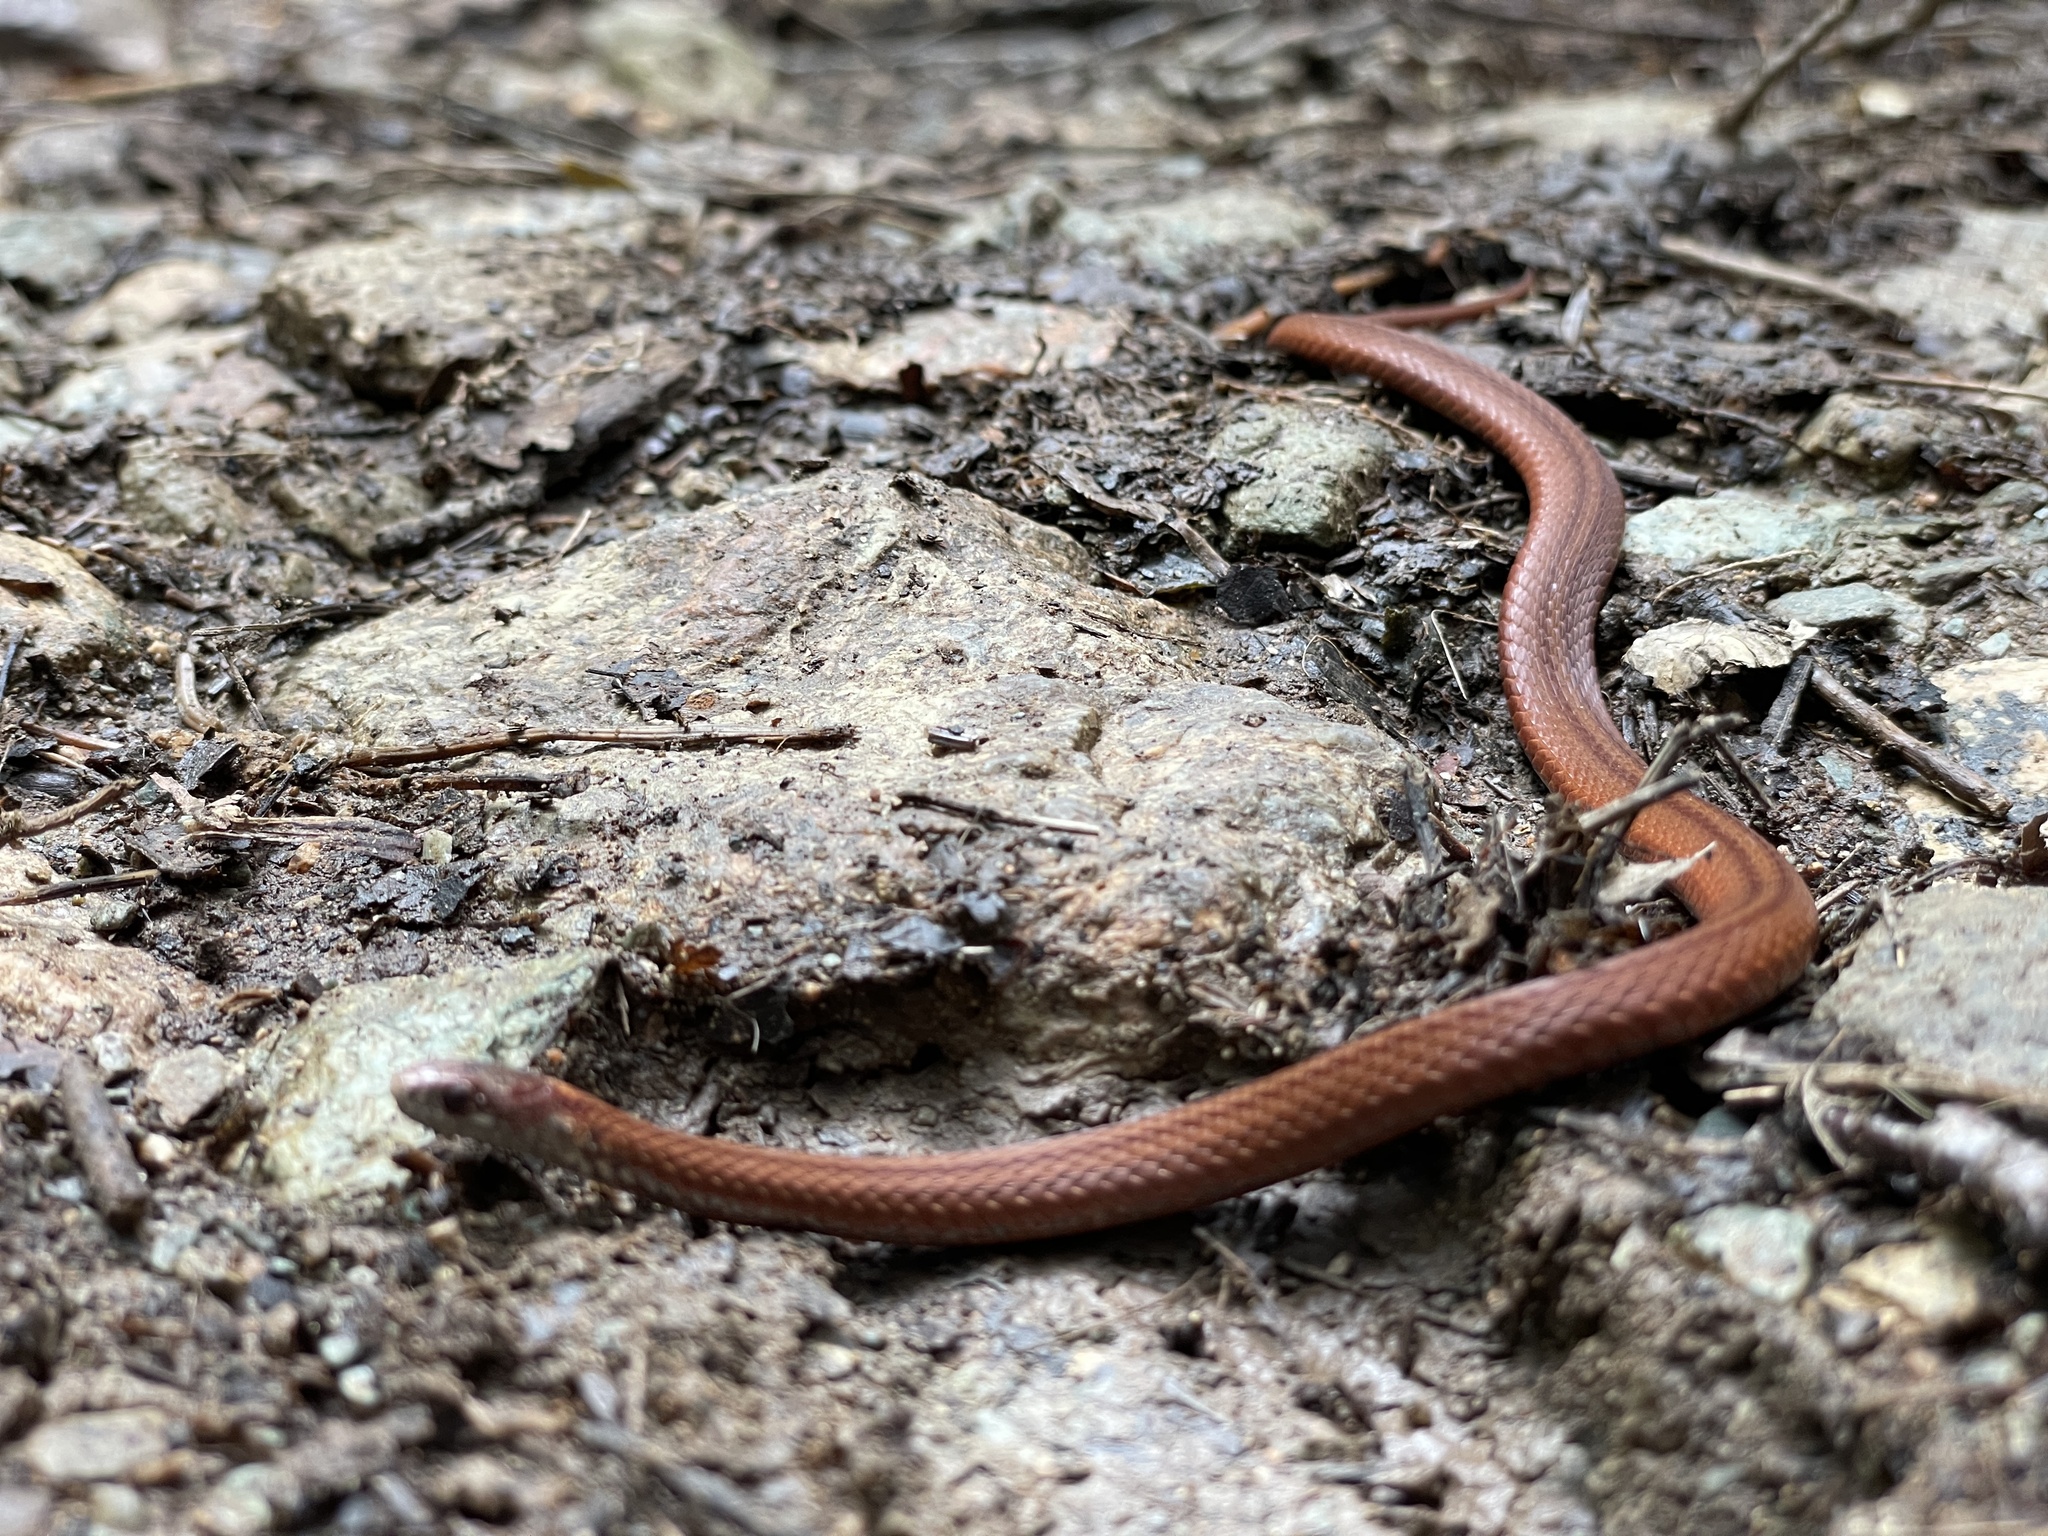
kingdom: Animalia
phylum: Chordata
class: Squamata
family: Colubridae
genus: Storeria
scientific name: Storeria occipitomaculata
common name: Redbelly snake
